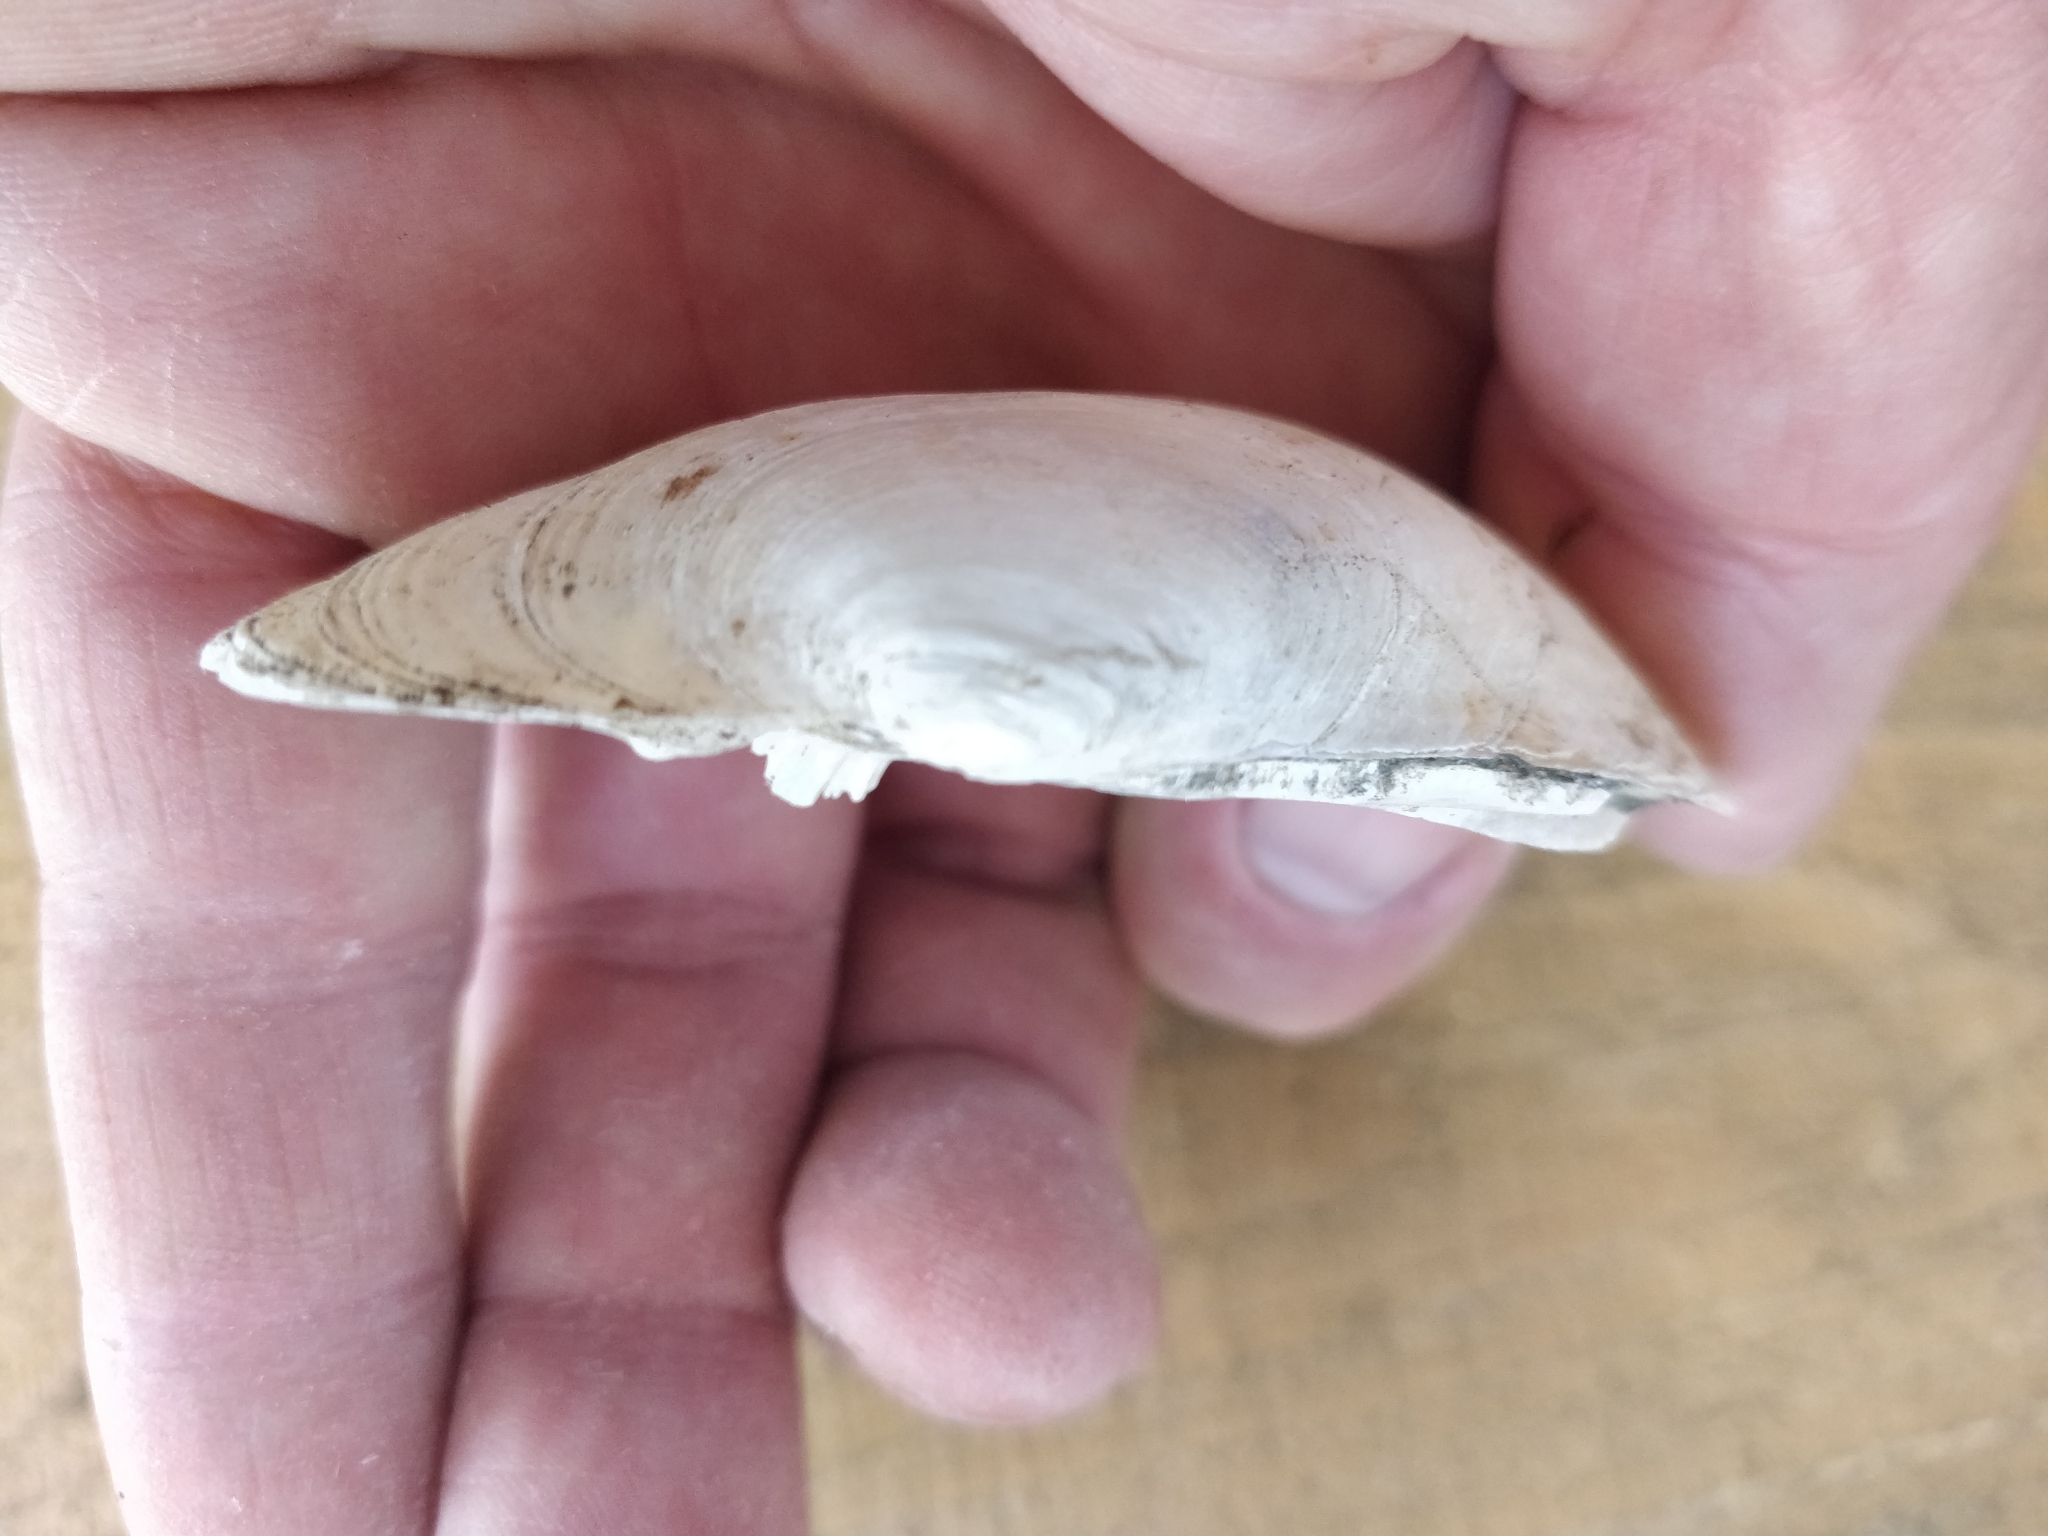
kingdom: Animalia
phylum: Mollusca
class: Bivalvia
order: Unionida
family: Unionidae
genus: Lampsilis
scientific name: Lampsilis cardium
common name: Plain pocketbook
